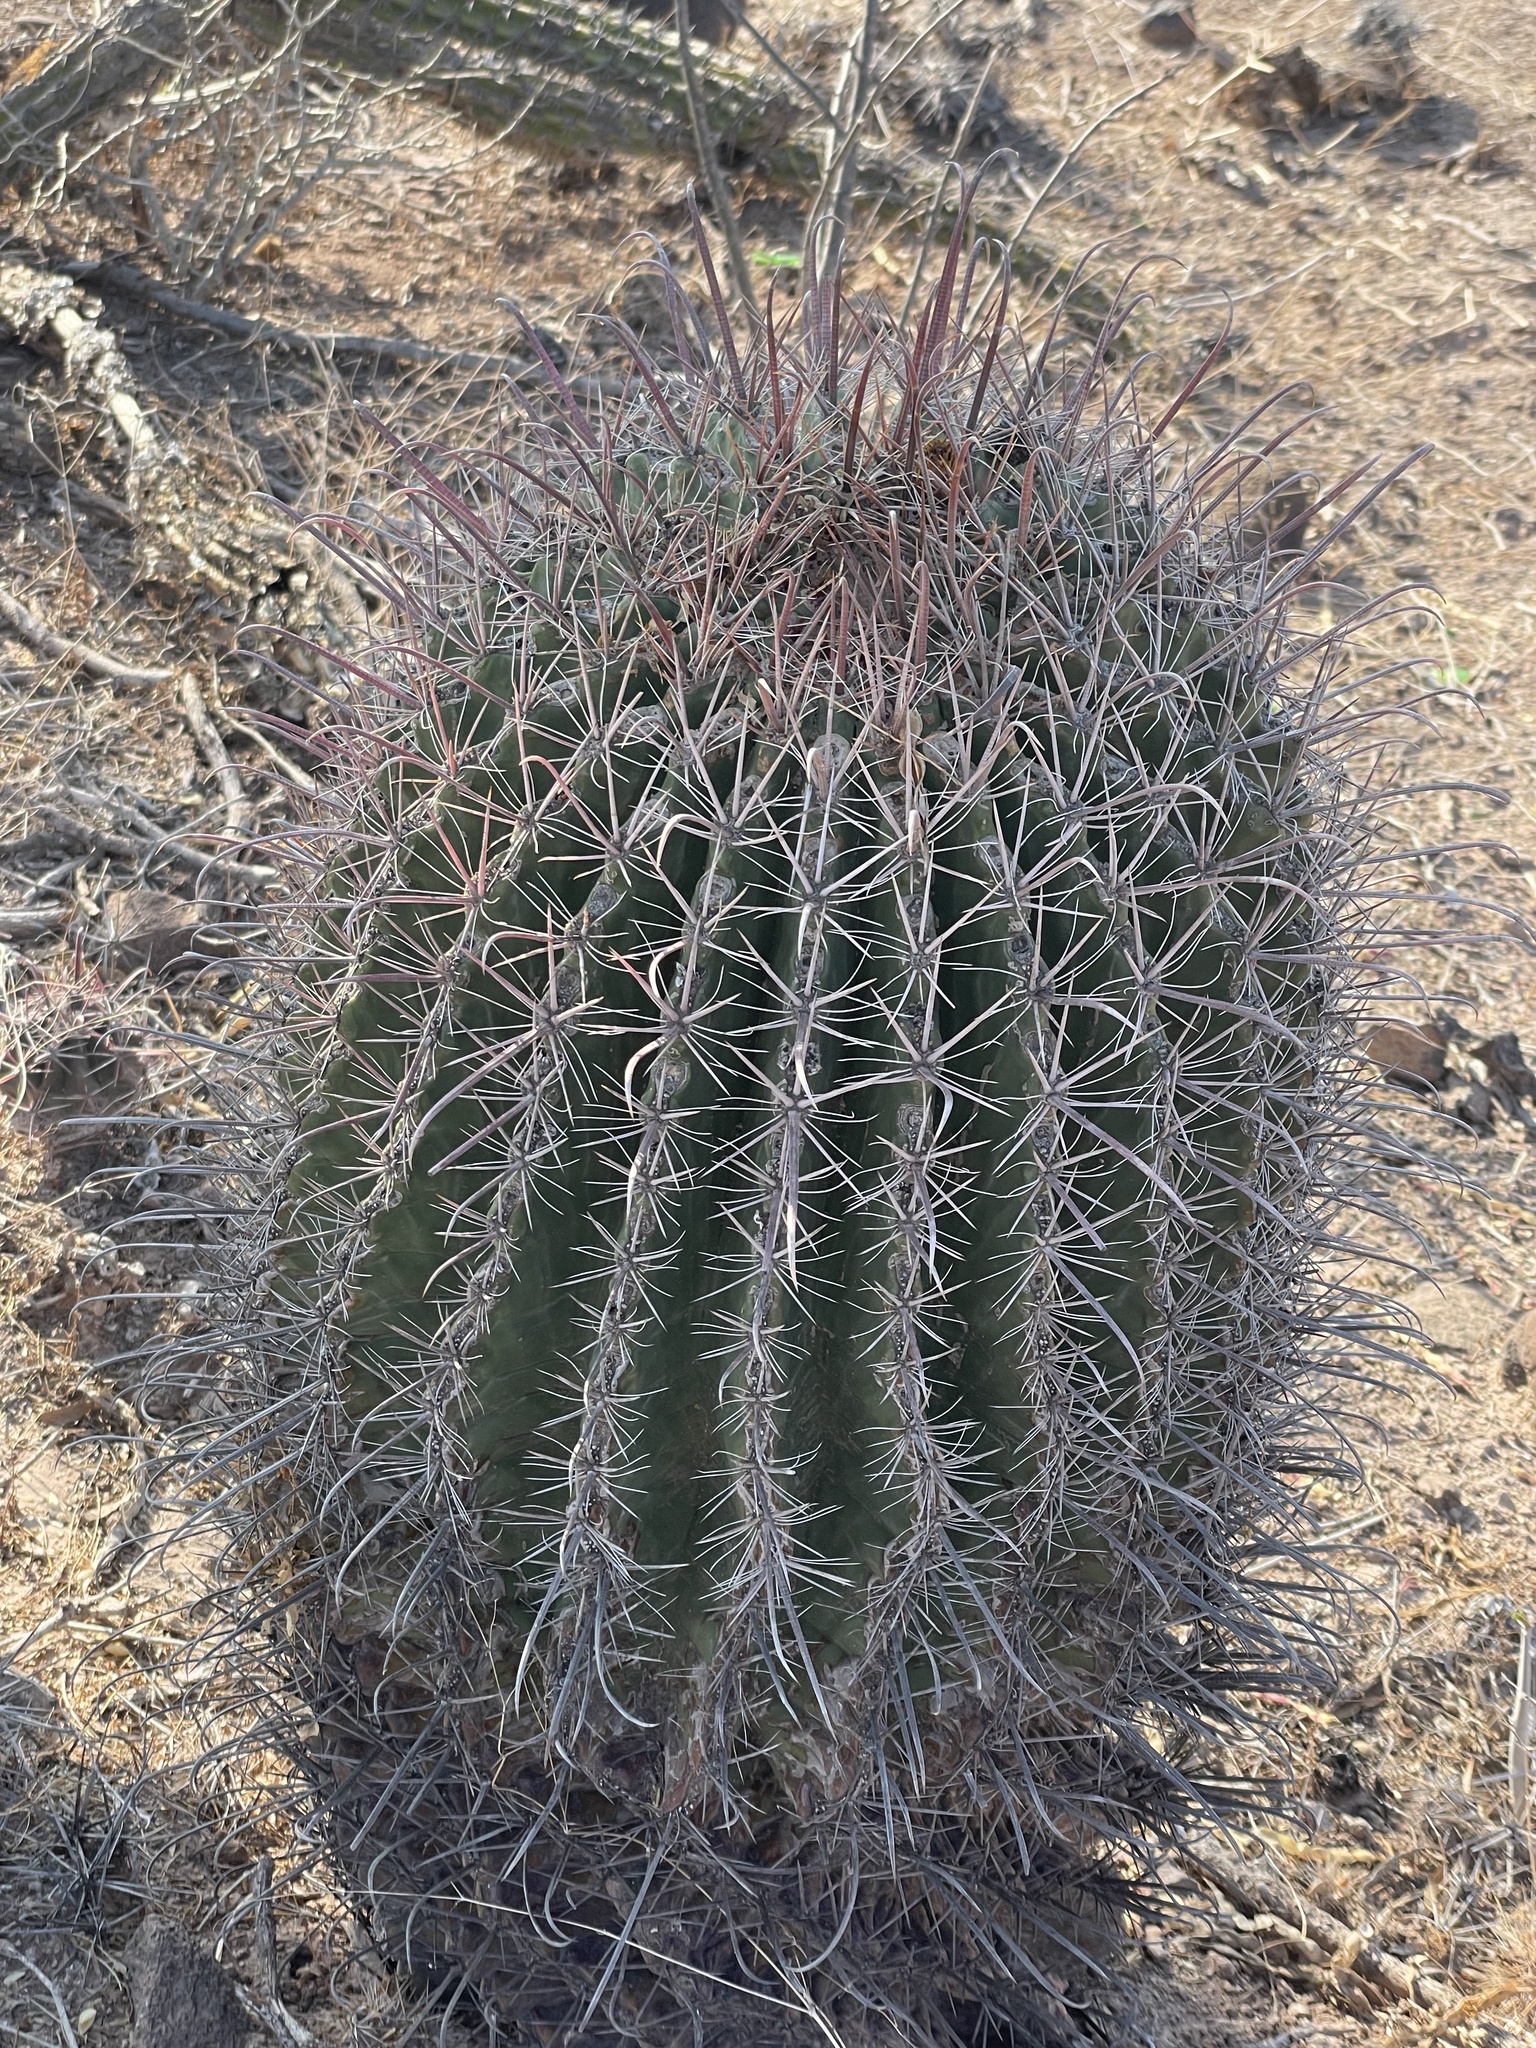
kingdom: Plantae
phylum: Tracheophyta
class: Magnoliopsida
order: Caryophyllales
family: Cactaceae
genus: Ferocactus
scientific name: Ferocactus peninsulae
